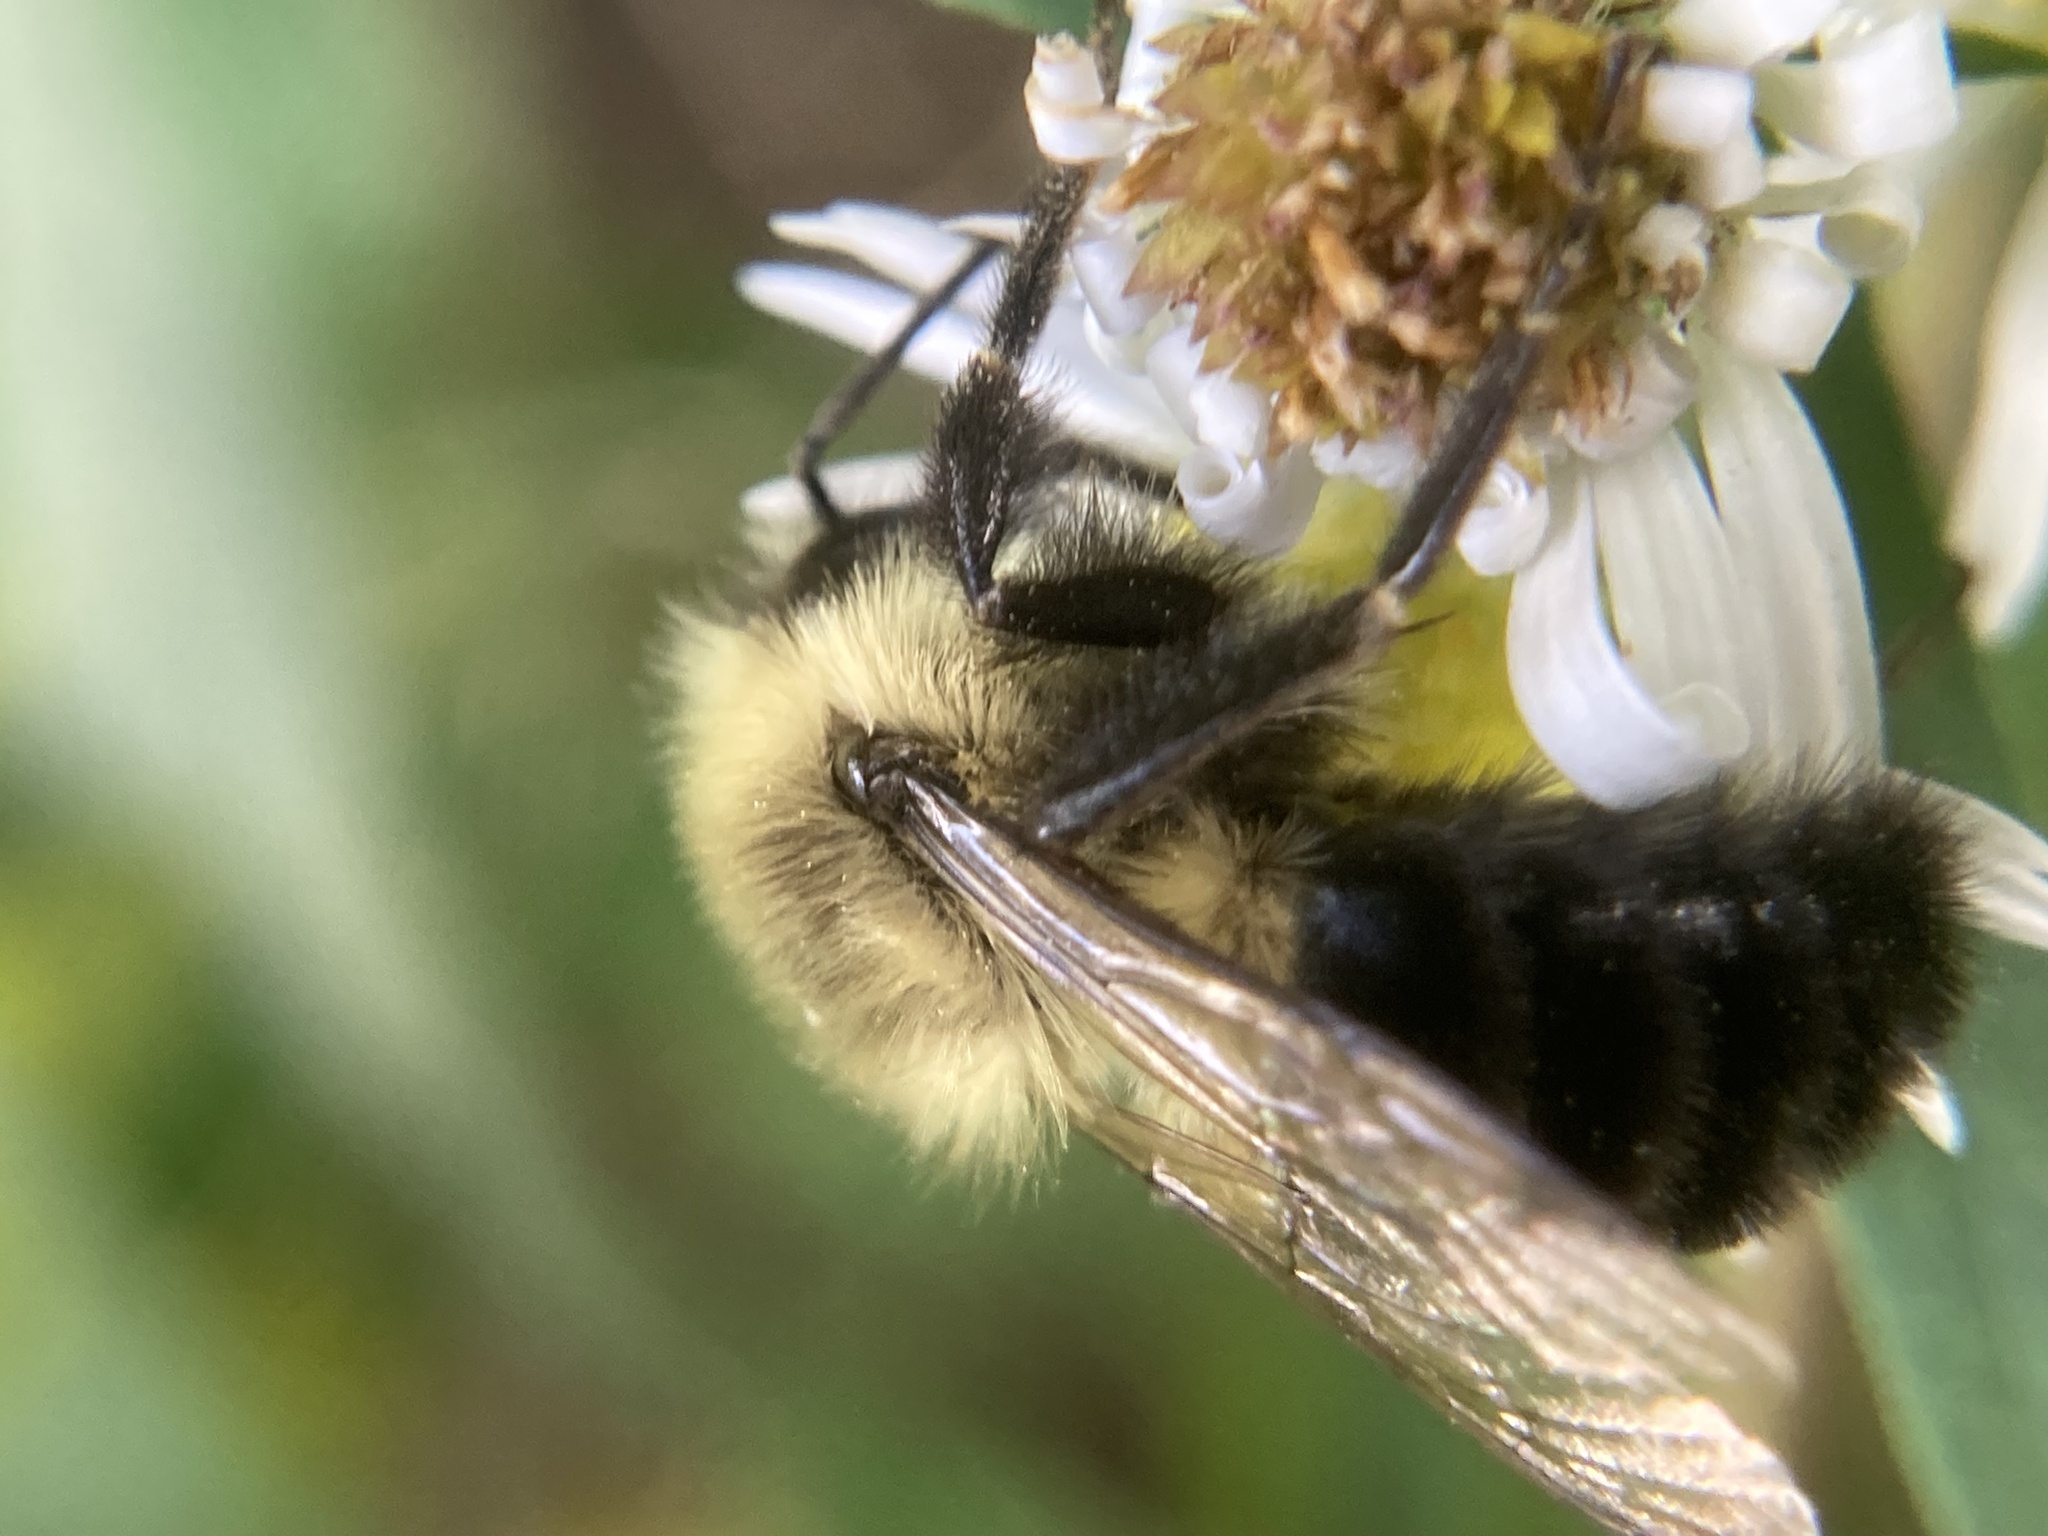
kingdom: Animalia
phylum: Arthropoda
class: Insecta
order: Hymenoptera
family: Apidae
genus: Bombus
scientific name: Bombus impatiens
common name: Common eastern bumble bee
